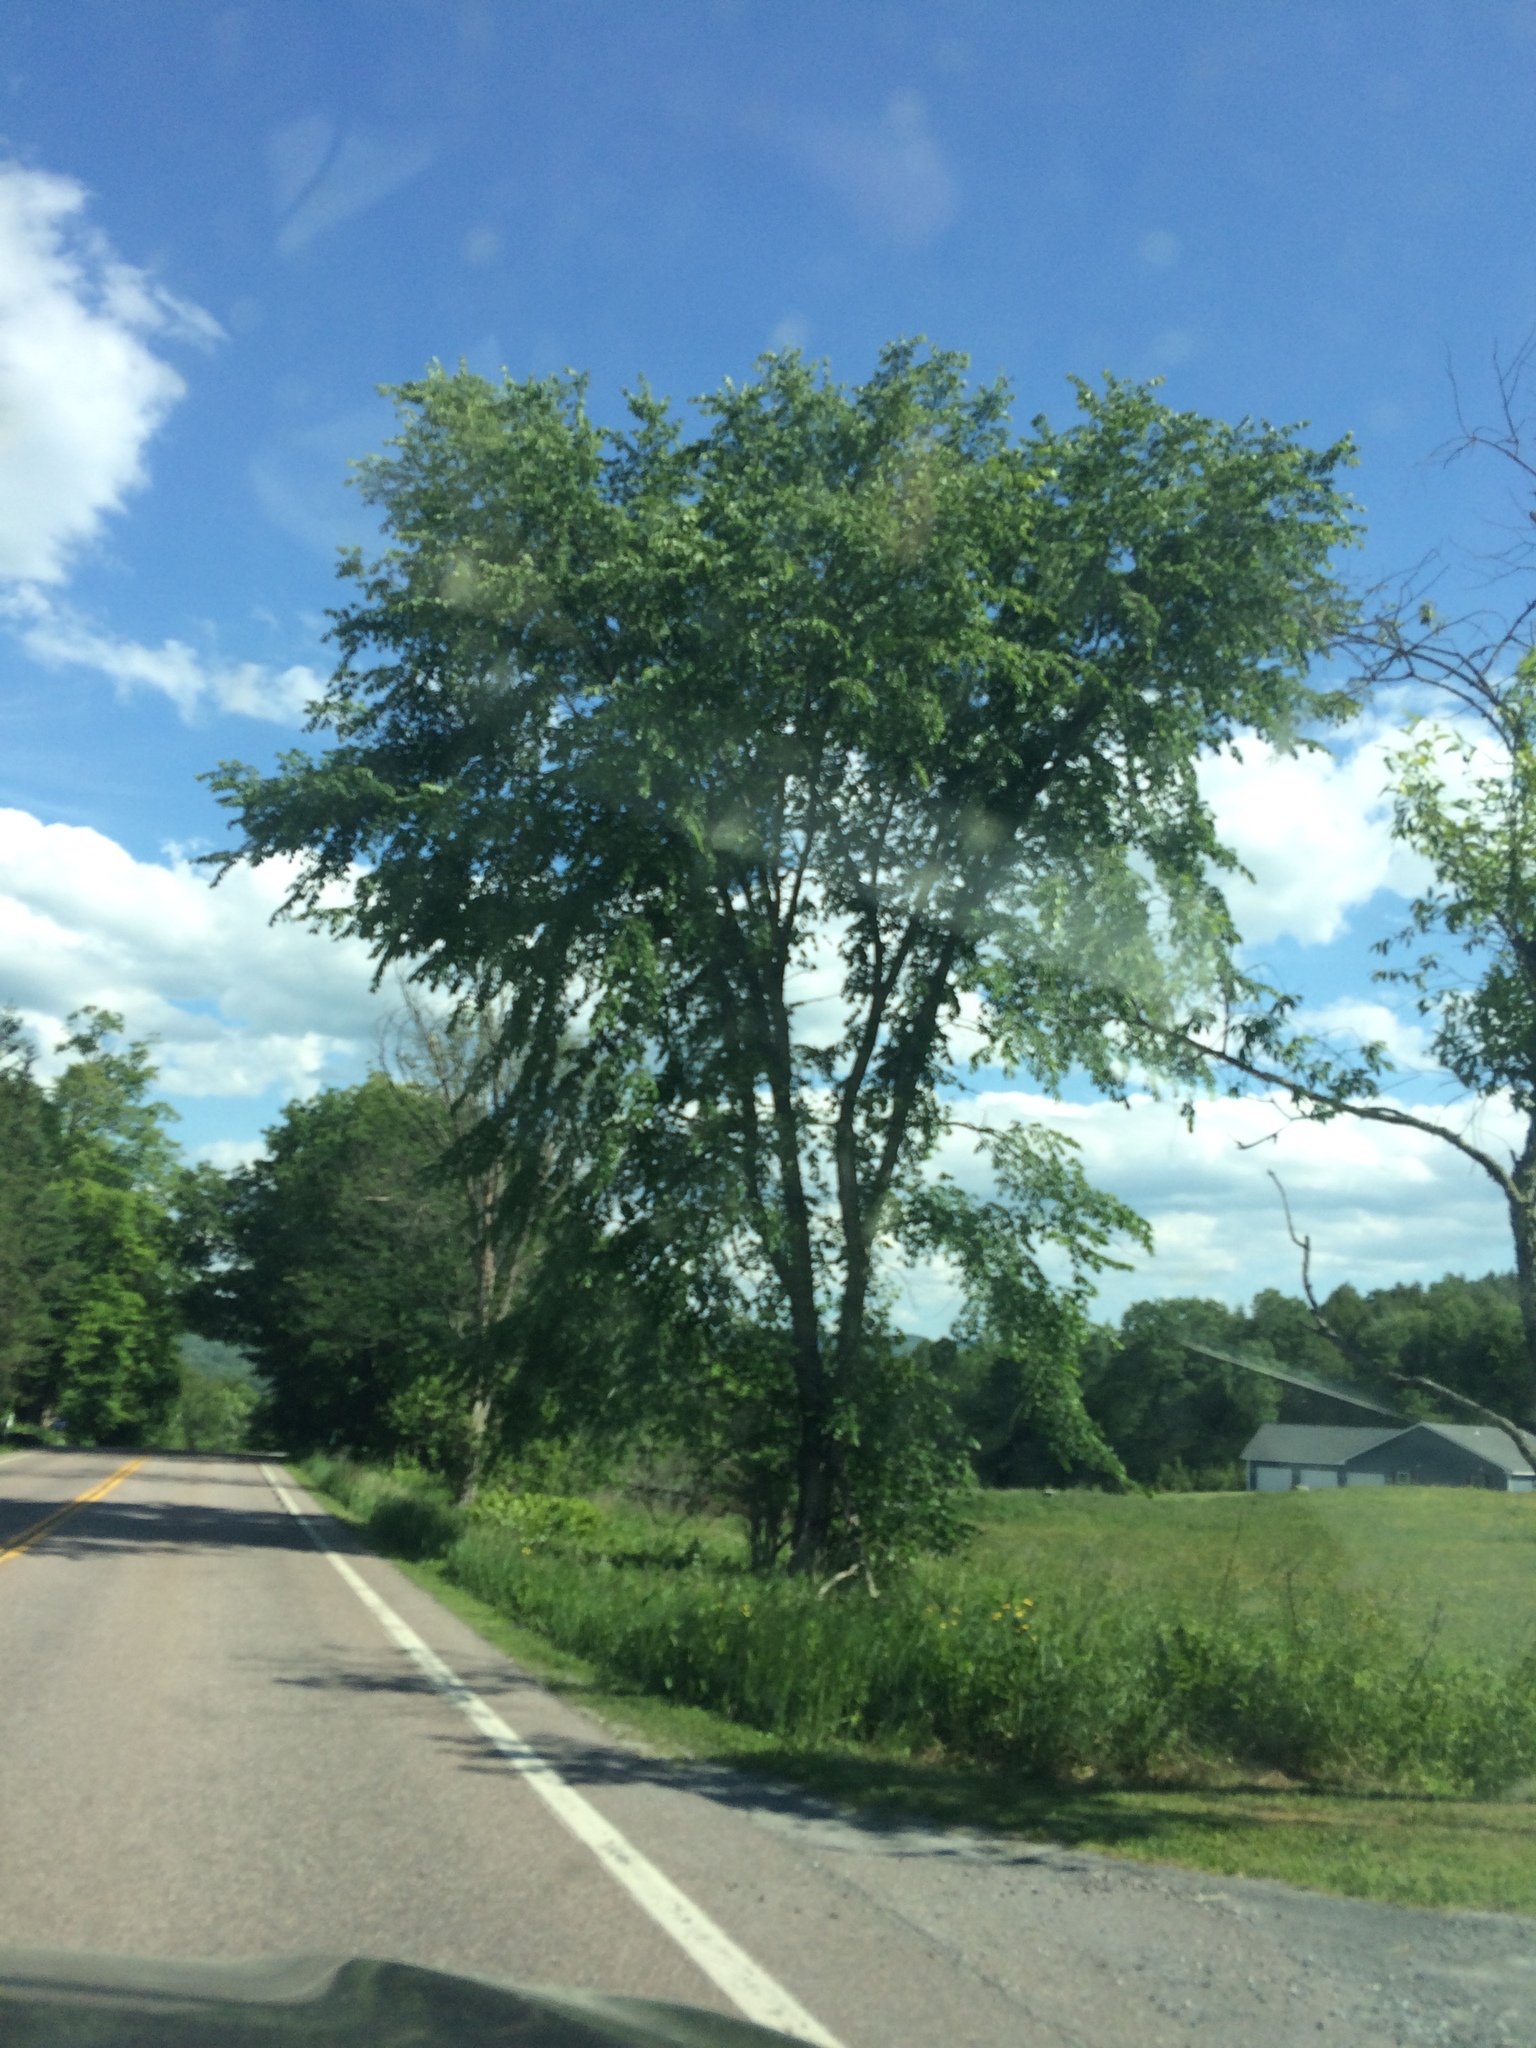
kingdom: Plantae
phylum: Tracheophyta
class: Magnoliopsida
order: Rosales
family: Ulmaceae
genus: Ulmus
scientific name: Ulmus americana
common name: American elm
